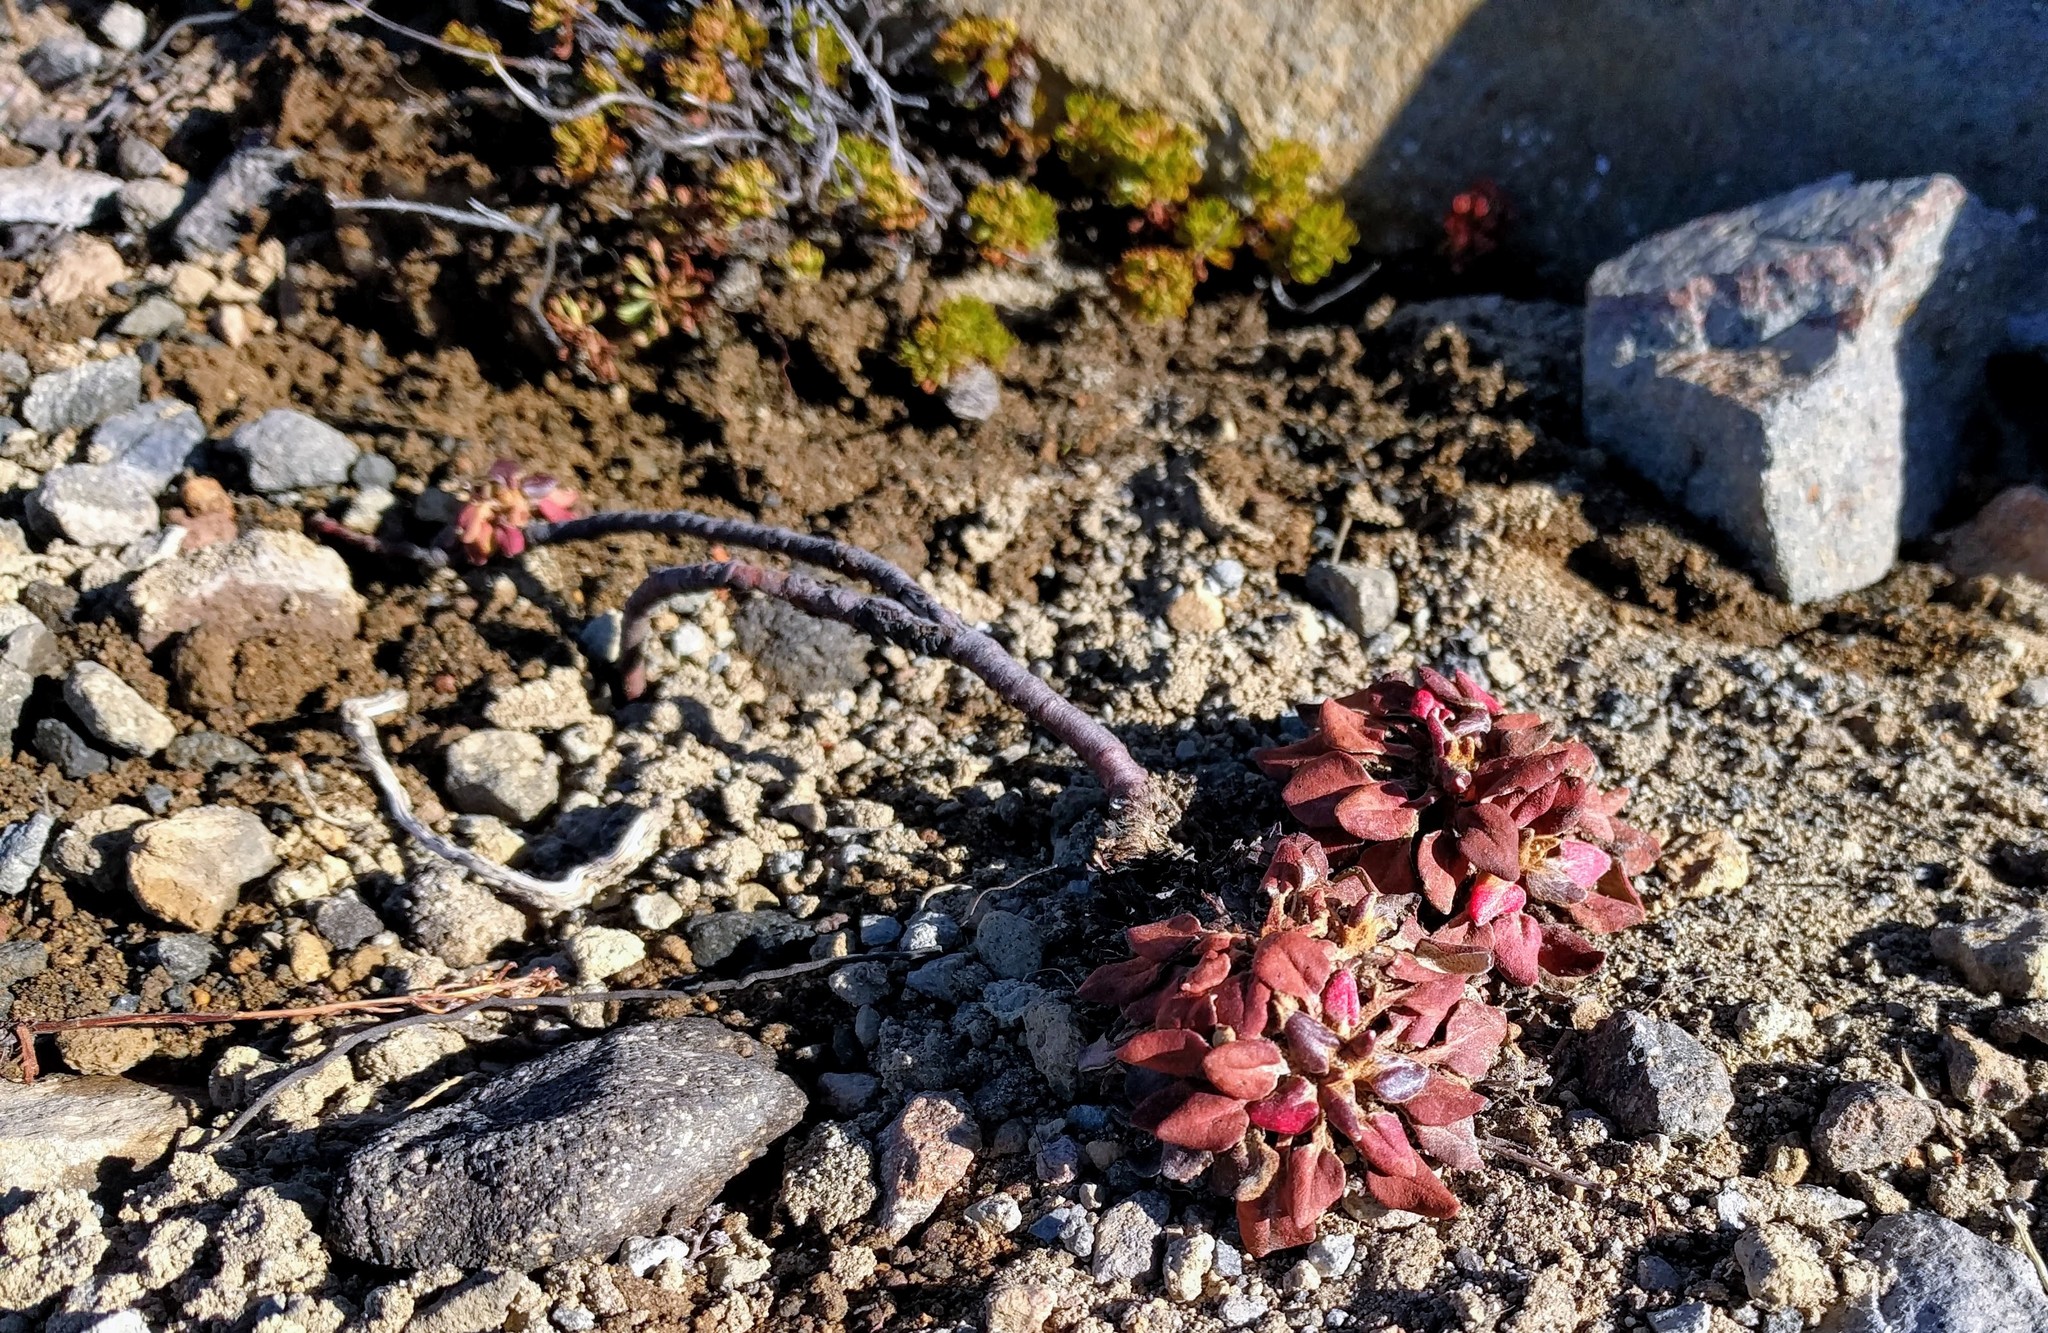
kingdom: Plantae
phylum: Tracheophyta
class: Magnoliopsida
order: Caryophyllales
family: Polygonaceae
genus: Eriogonum
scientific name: Eriogonum pyrolifolium
